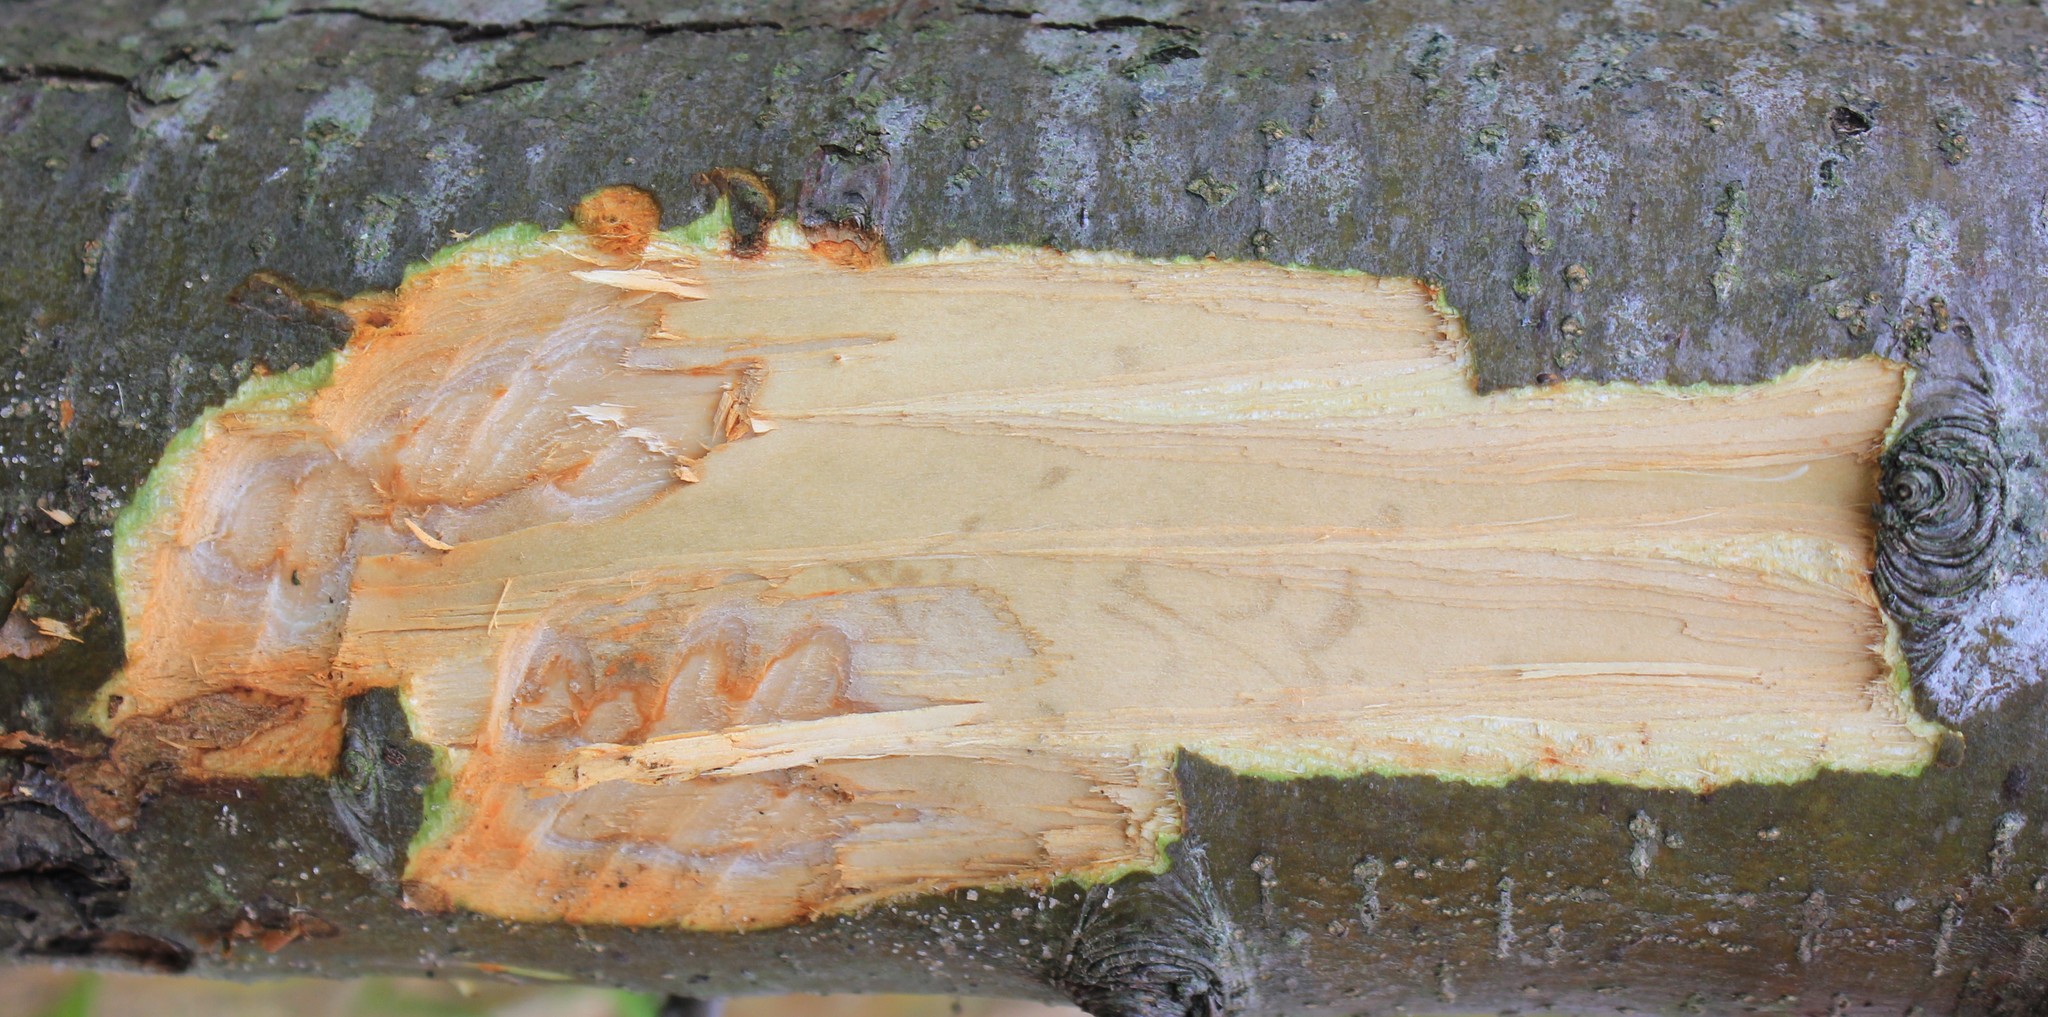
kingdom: Animalia
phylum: Chordata
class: Mammalia
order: Rodentia
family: Castoridae
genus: Castor
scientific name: Castor fiber
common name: Eurasian beaver
